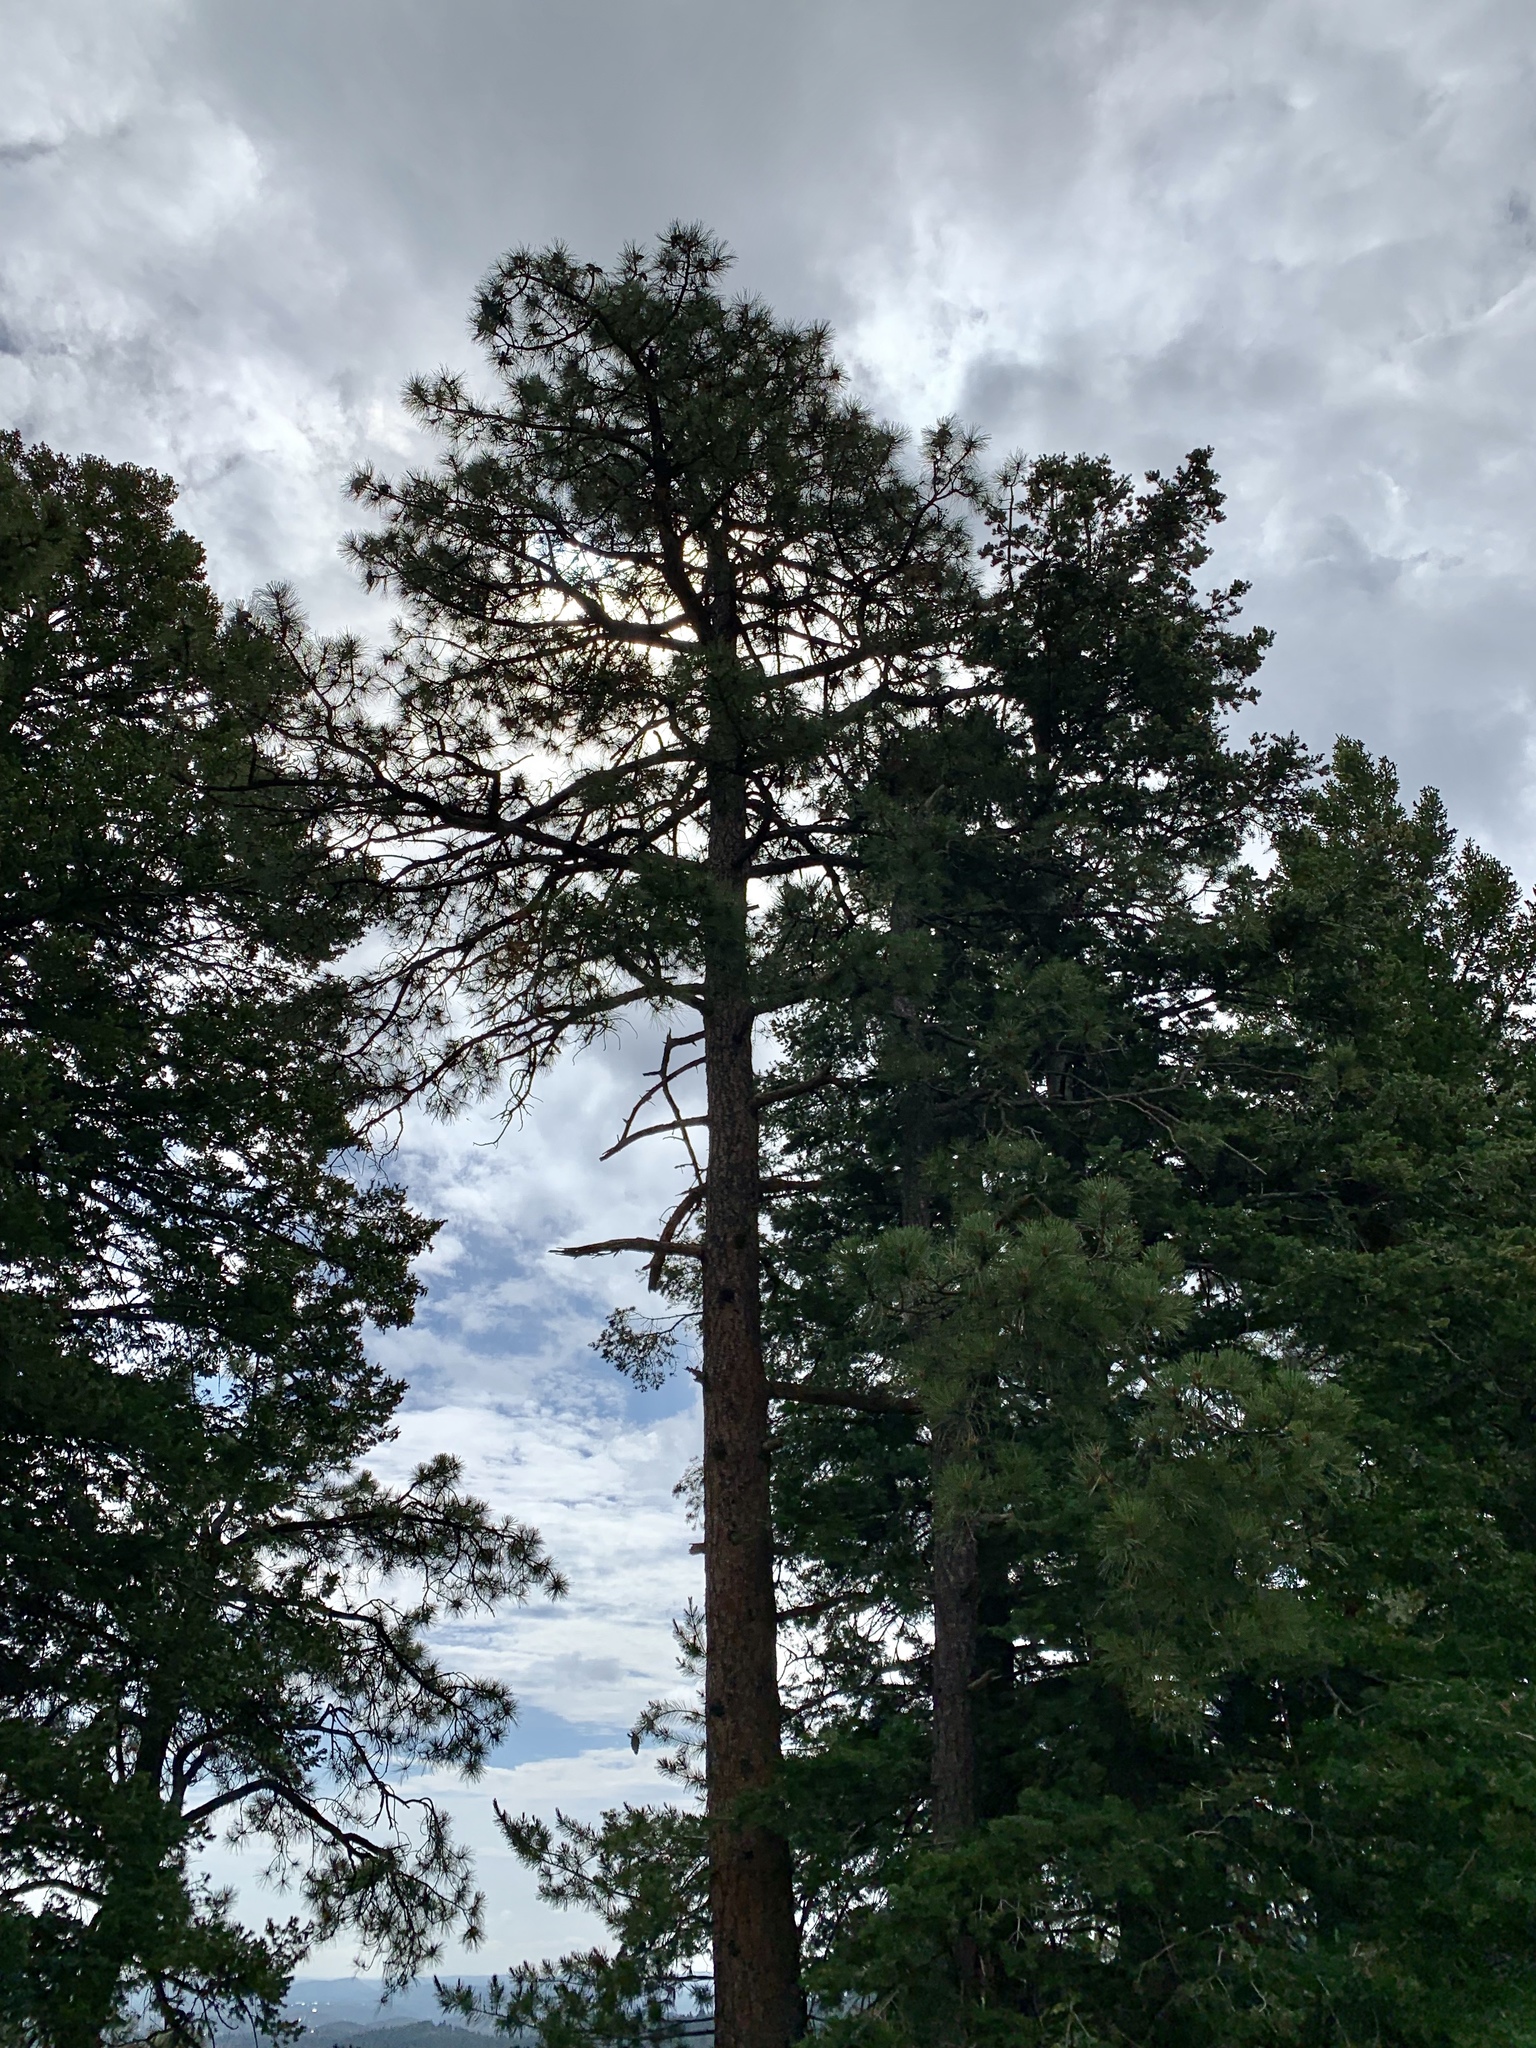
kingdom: Plantae
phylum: Tracheophyta
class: Pinopsida
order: Pinales
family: Pinaceae
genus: Pinus
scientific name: Pinus ponderosa
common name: Western yellow-pine
